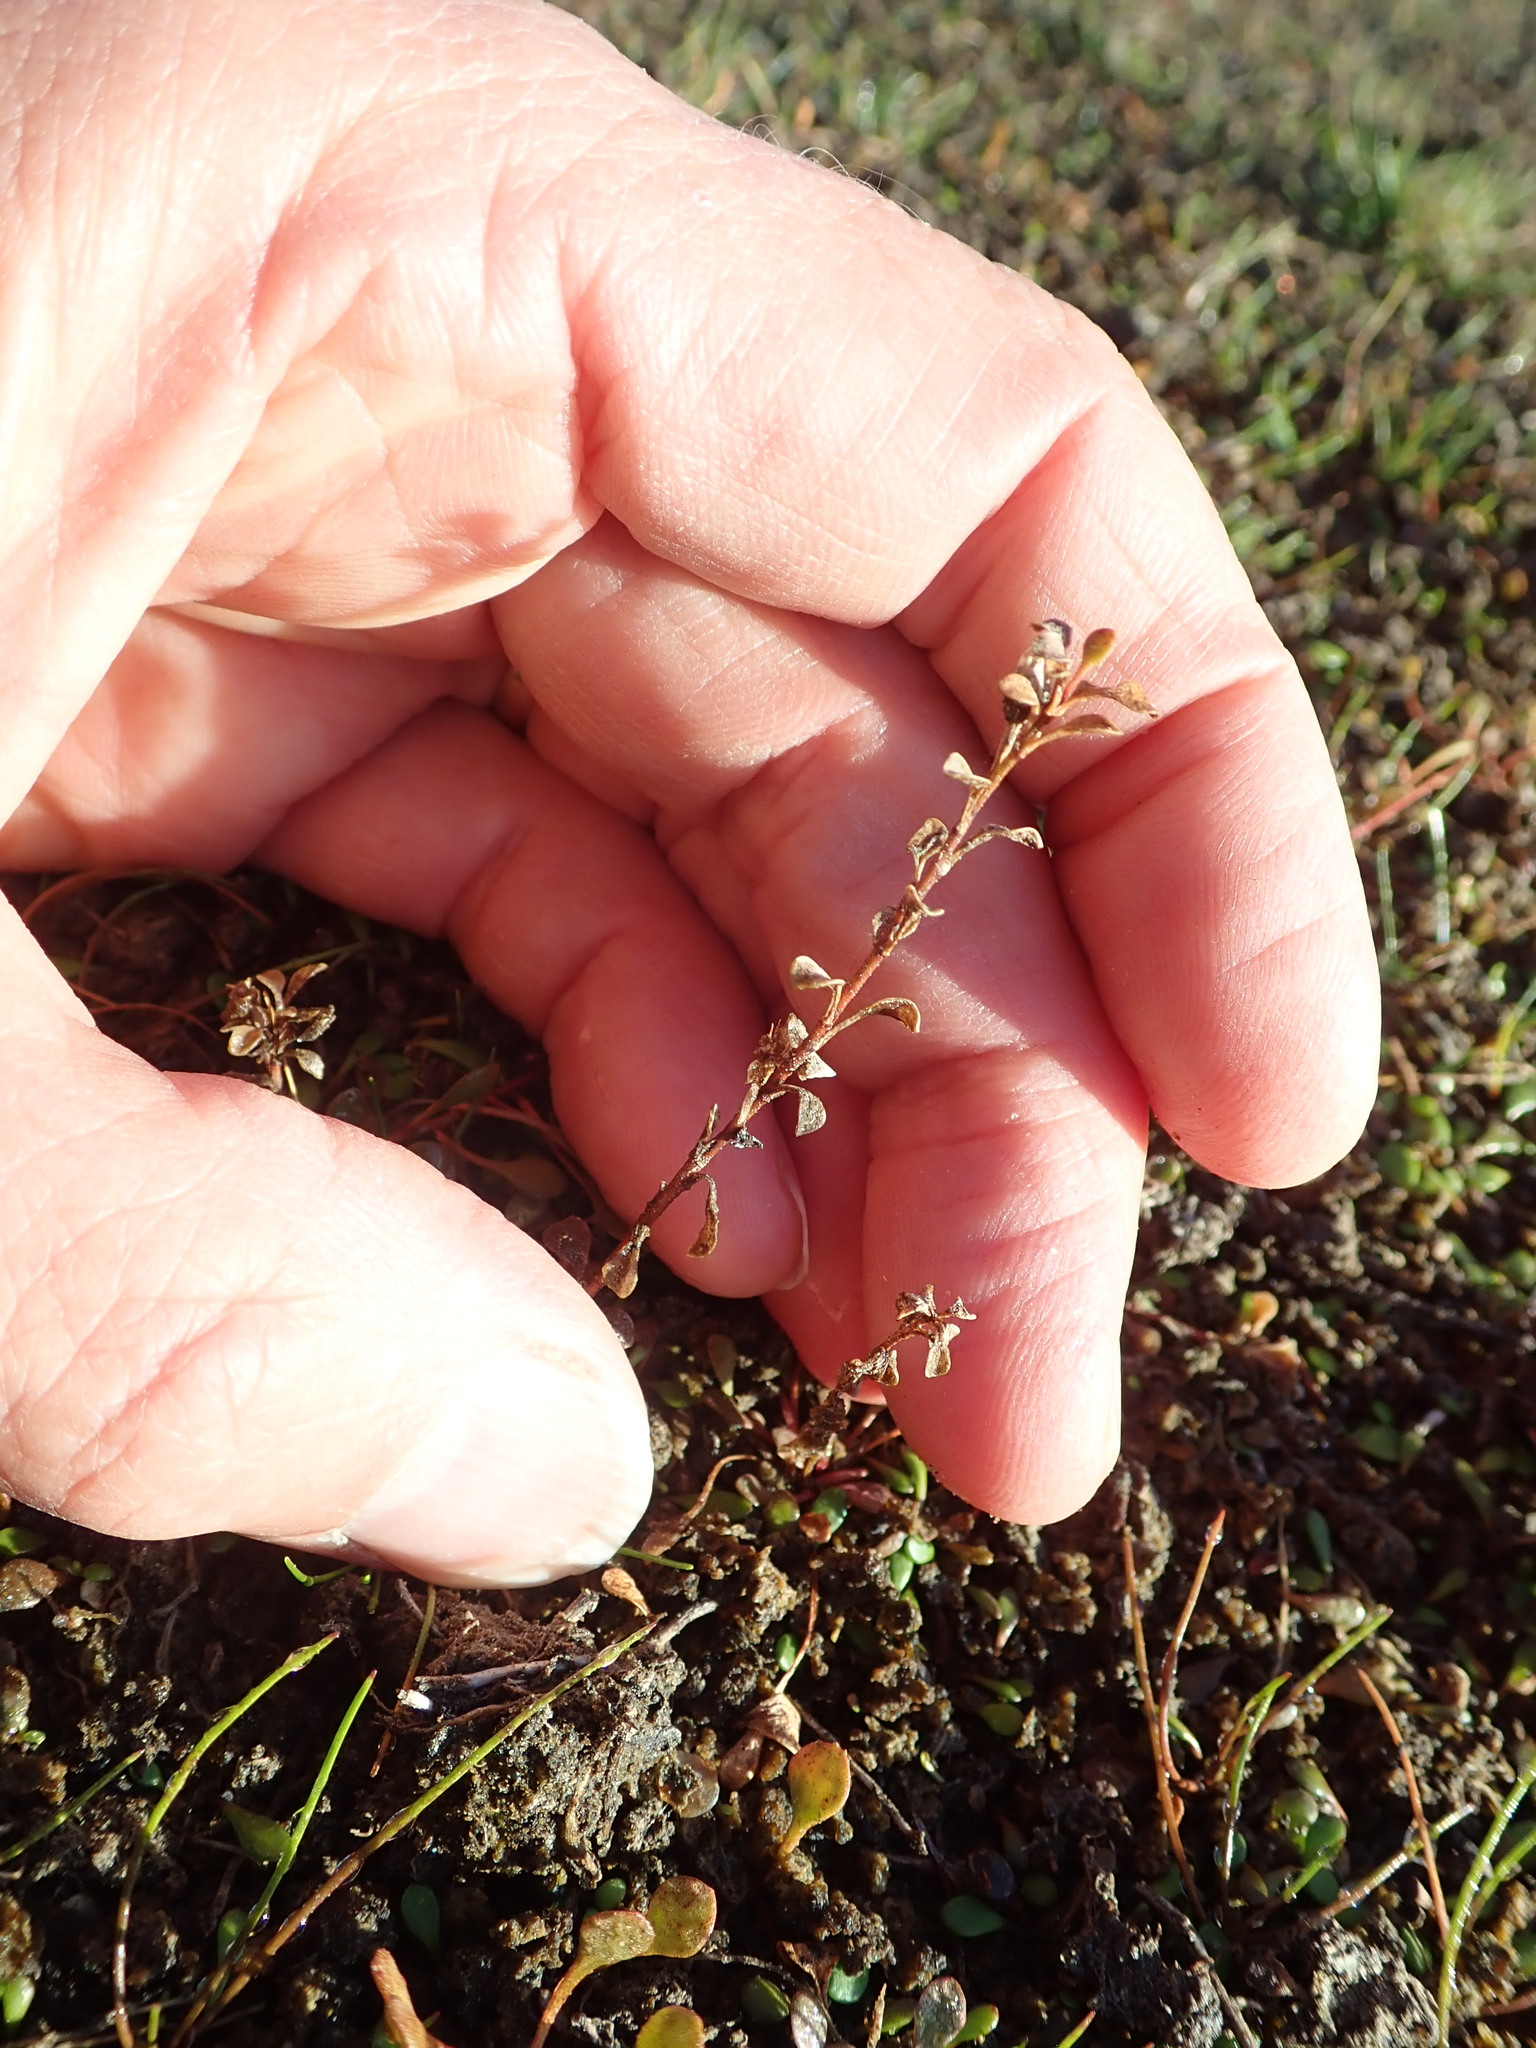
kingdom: Plantae
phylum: Tracheophyta
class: Magnoliopsida
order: Ericales
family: Primulaceae
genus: Samolus
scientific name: Samolus repens
